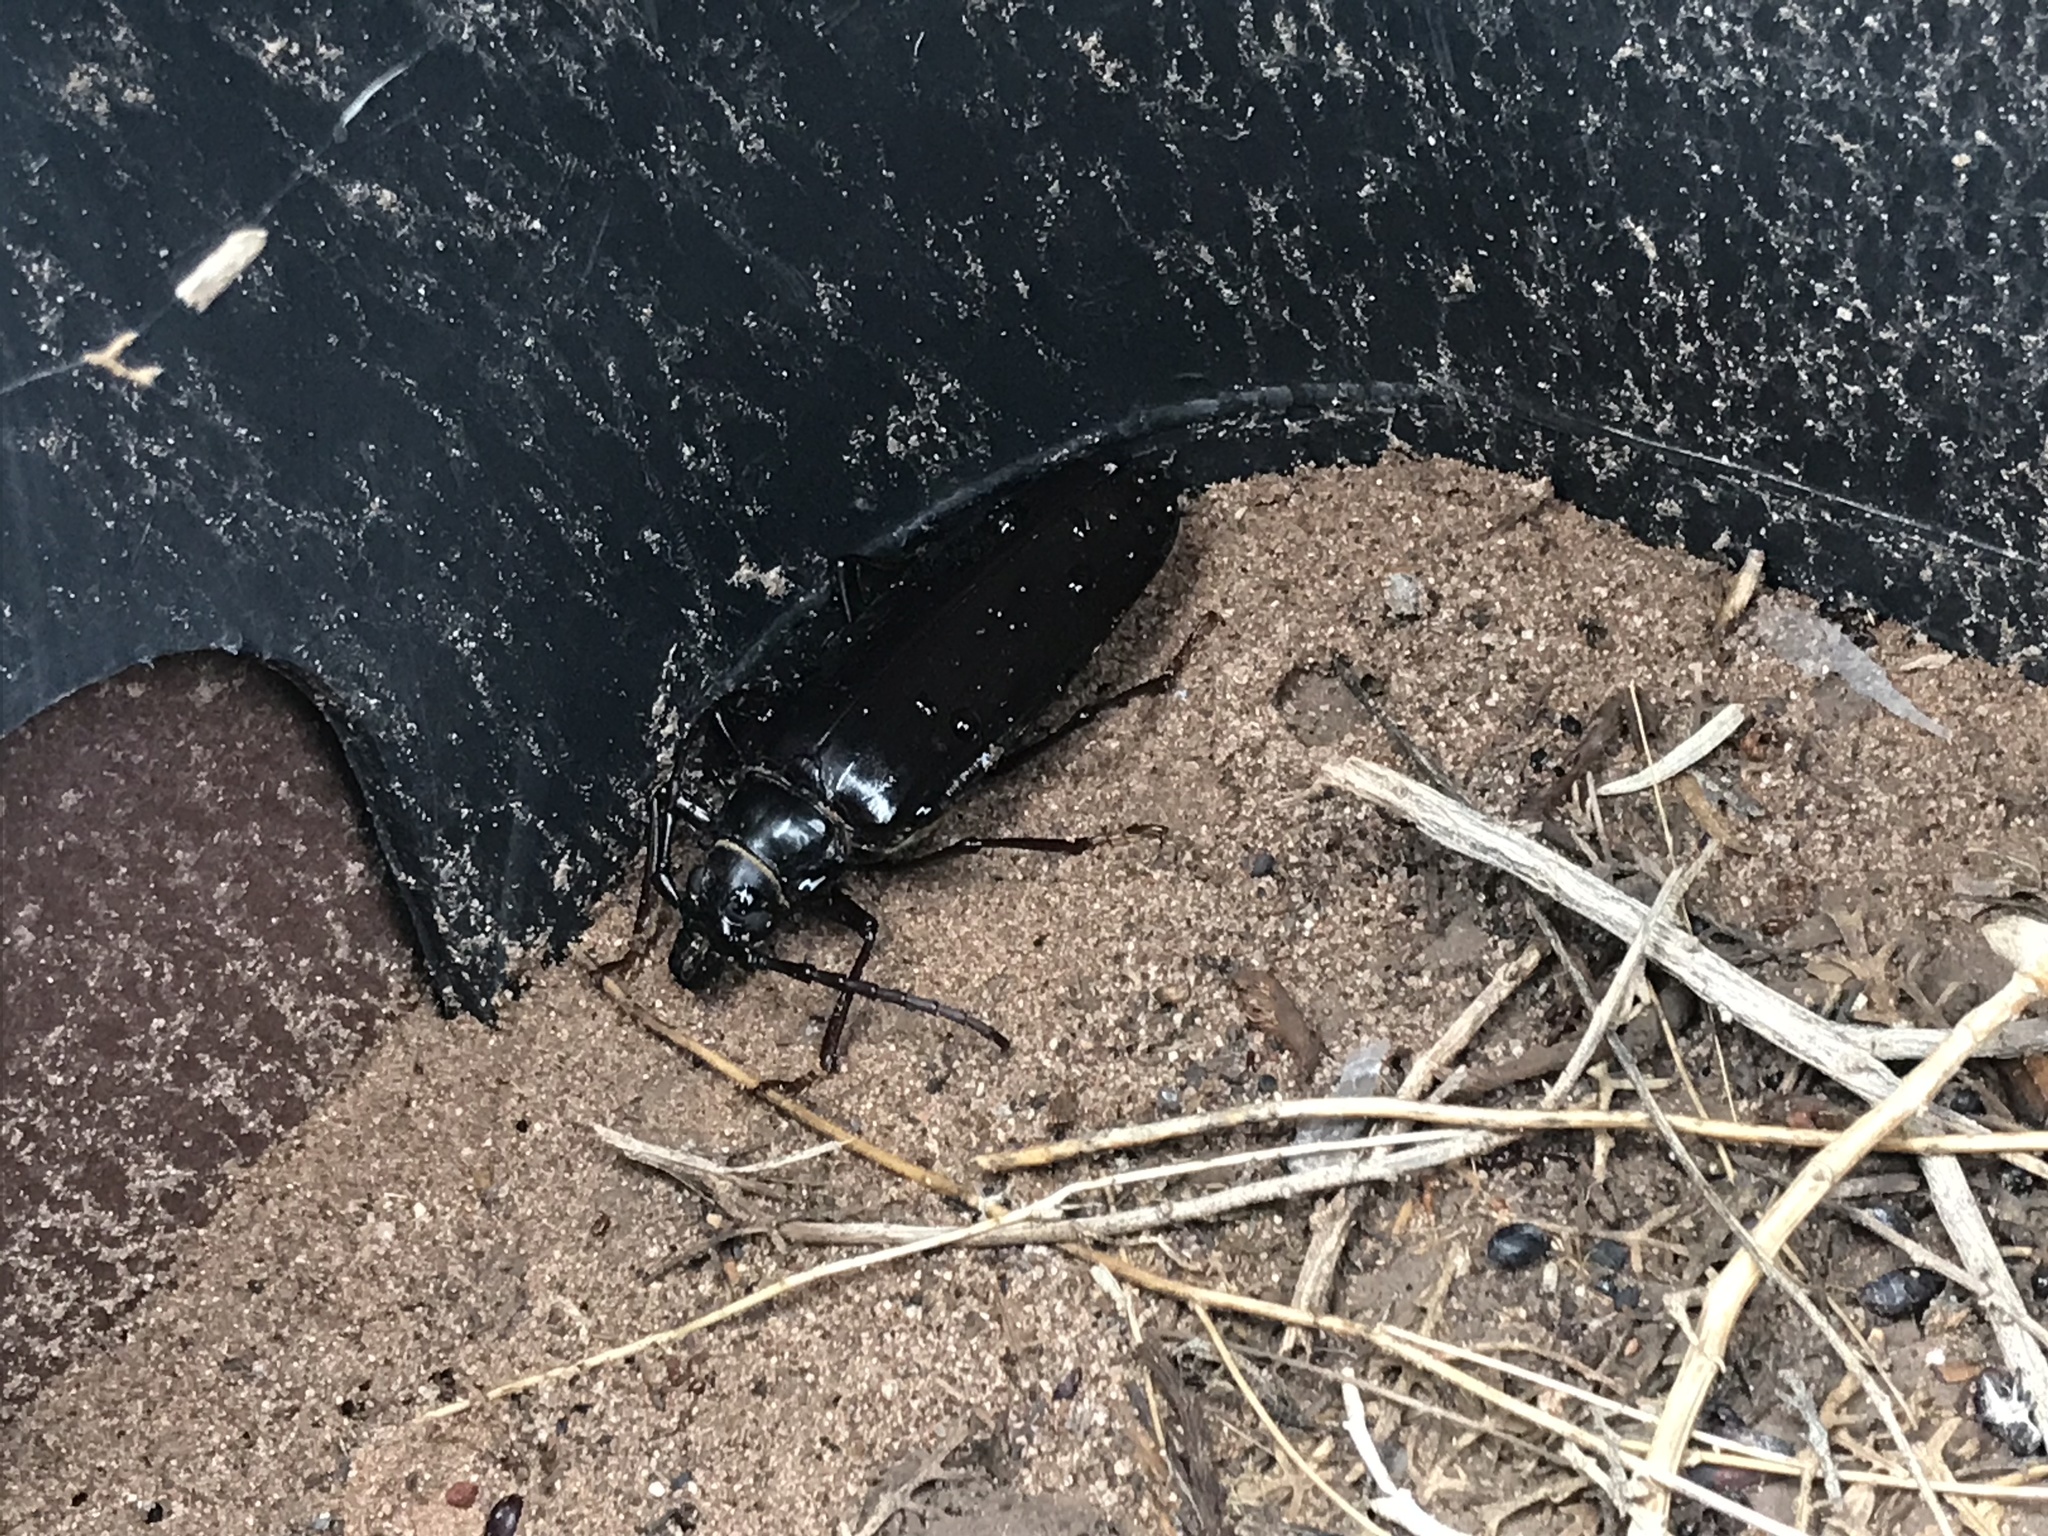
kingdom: Animalia
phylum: Arthropoda
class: Insecta
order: Coleoptera
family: Cerambycidae
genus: Derobrachus
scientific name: Derobrachus hovorei
